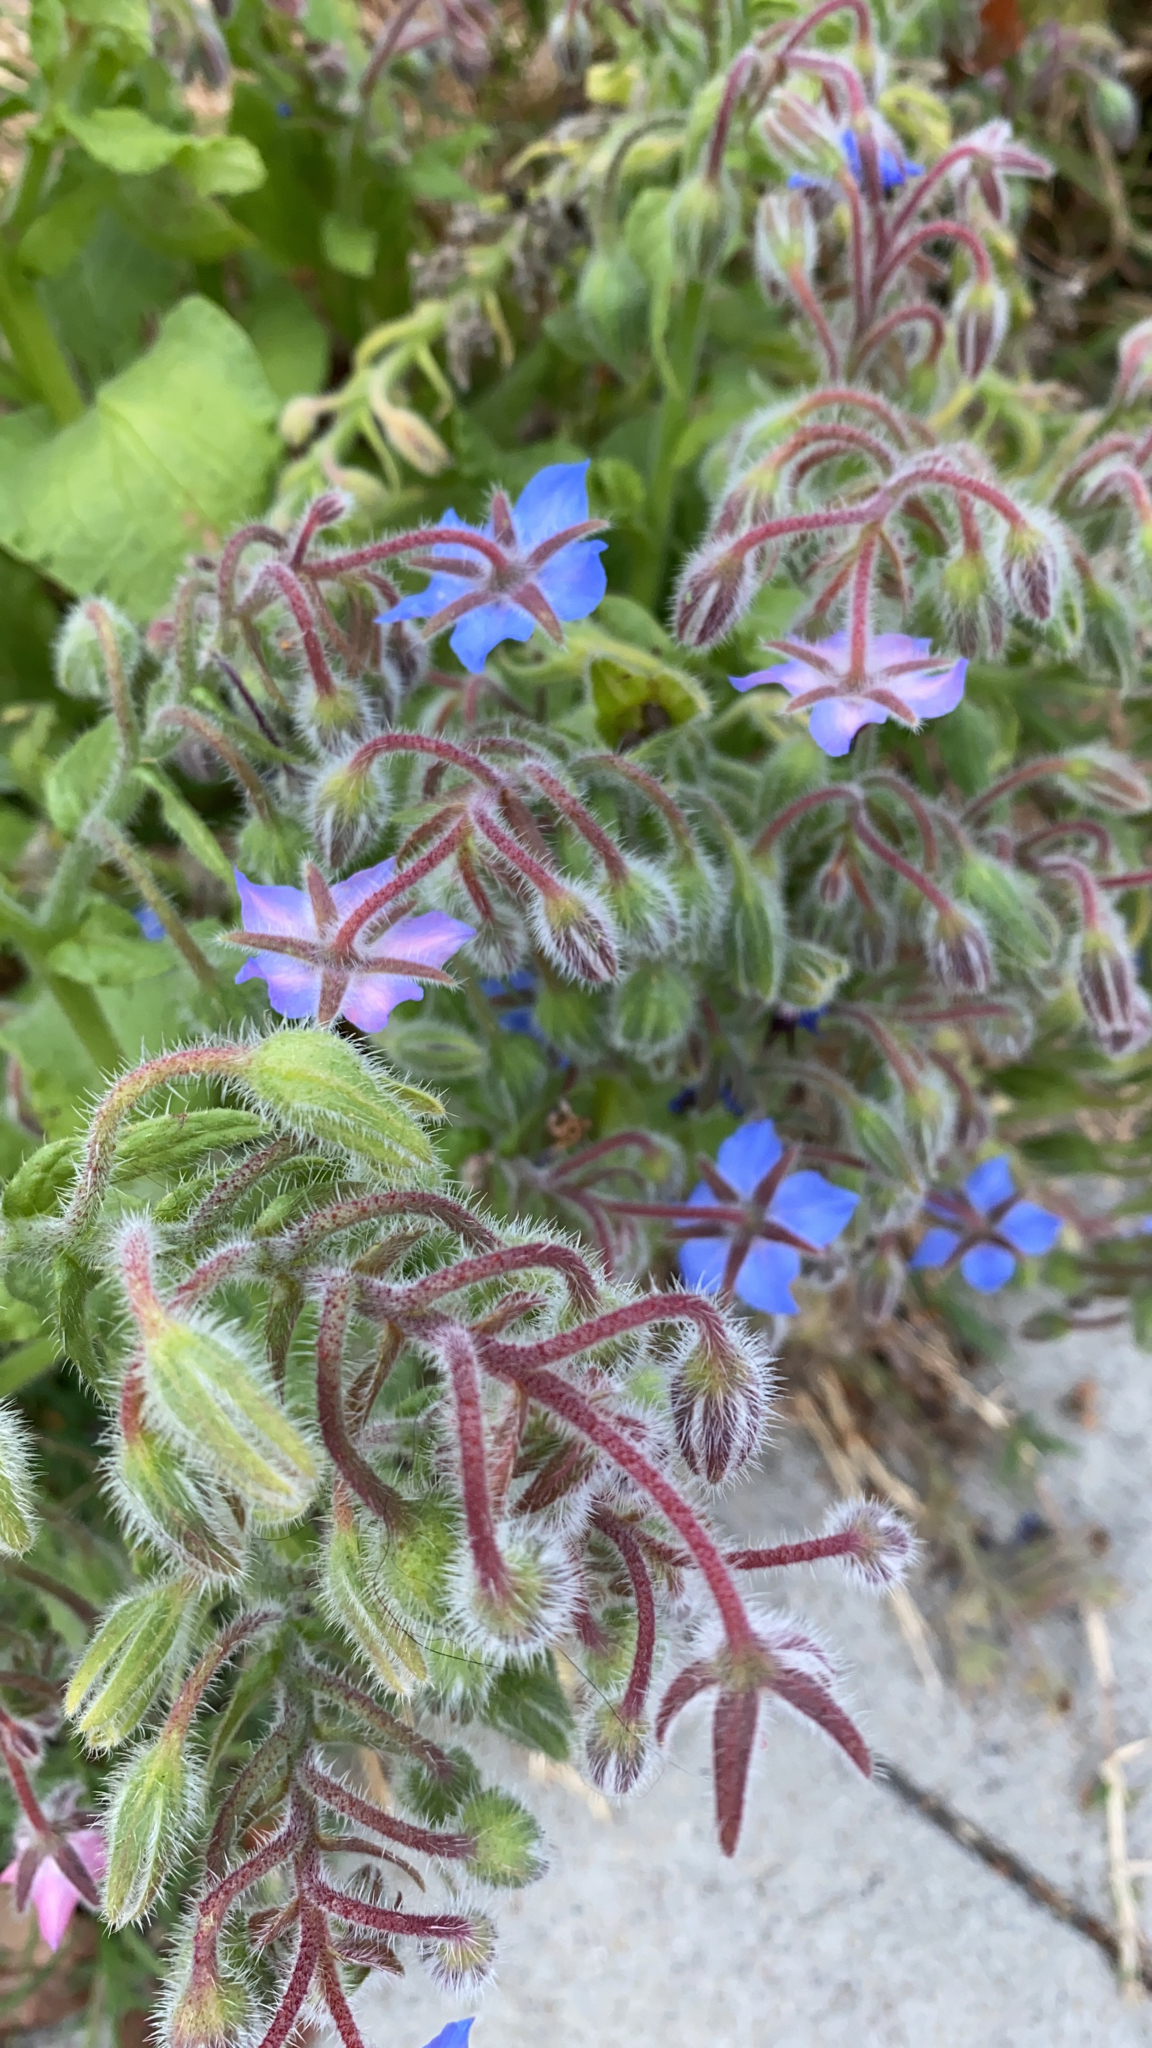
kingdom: Plantae
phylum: Tracheophyta
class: Magnoliopsida
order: Boraginales
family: Boraginaceae
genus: Borago
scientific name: Borago officinalis
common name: Borage
